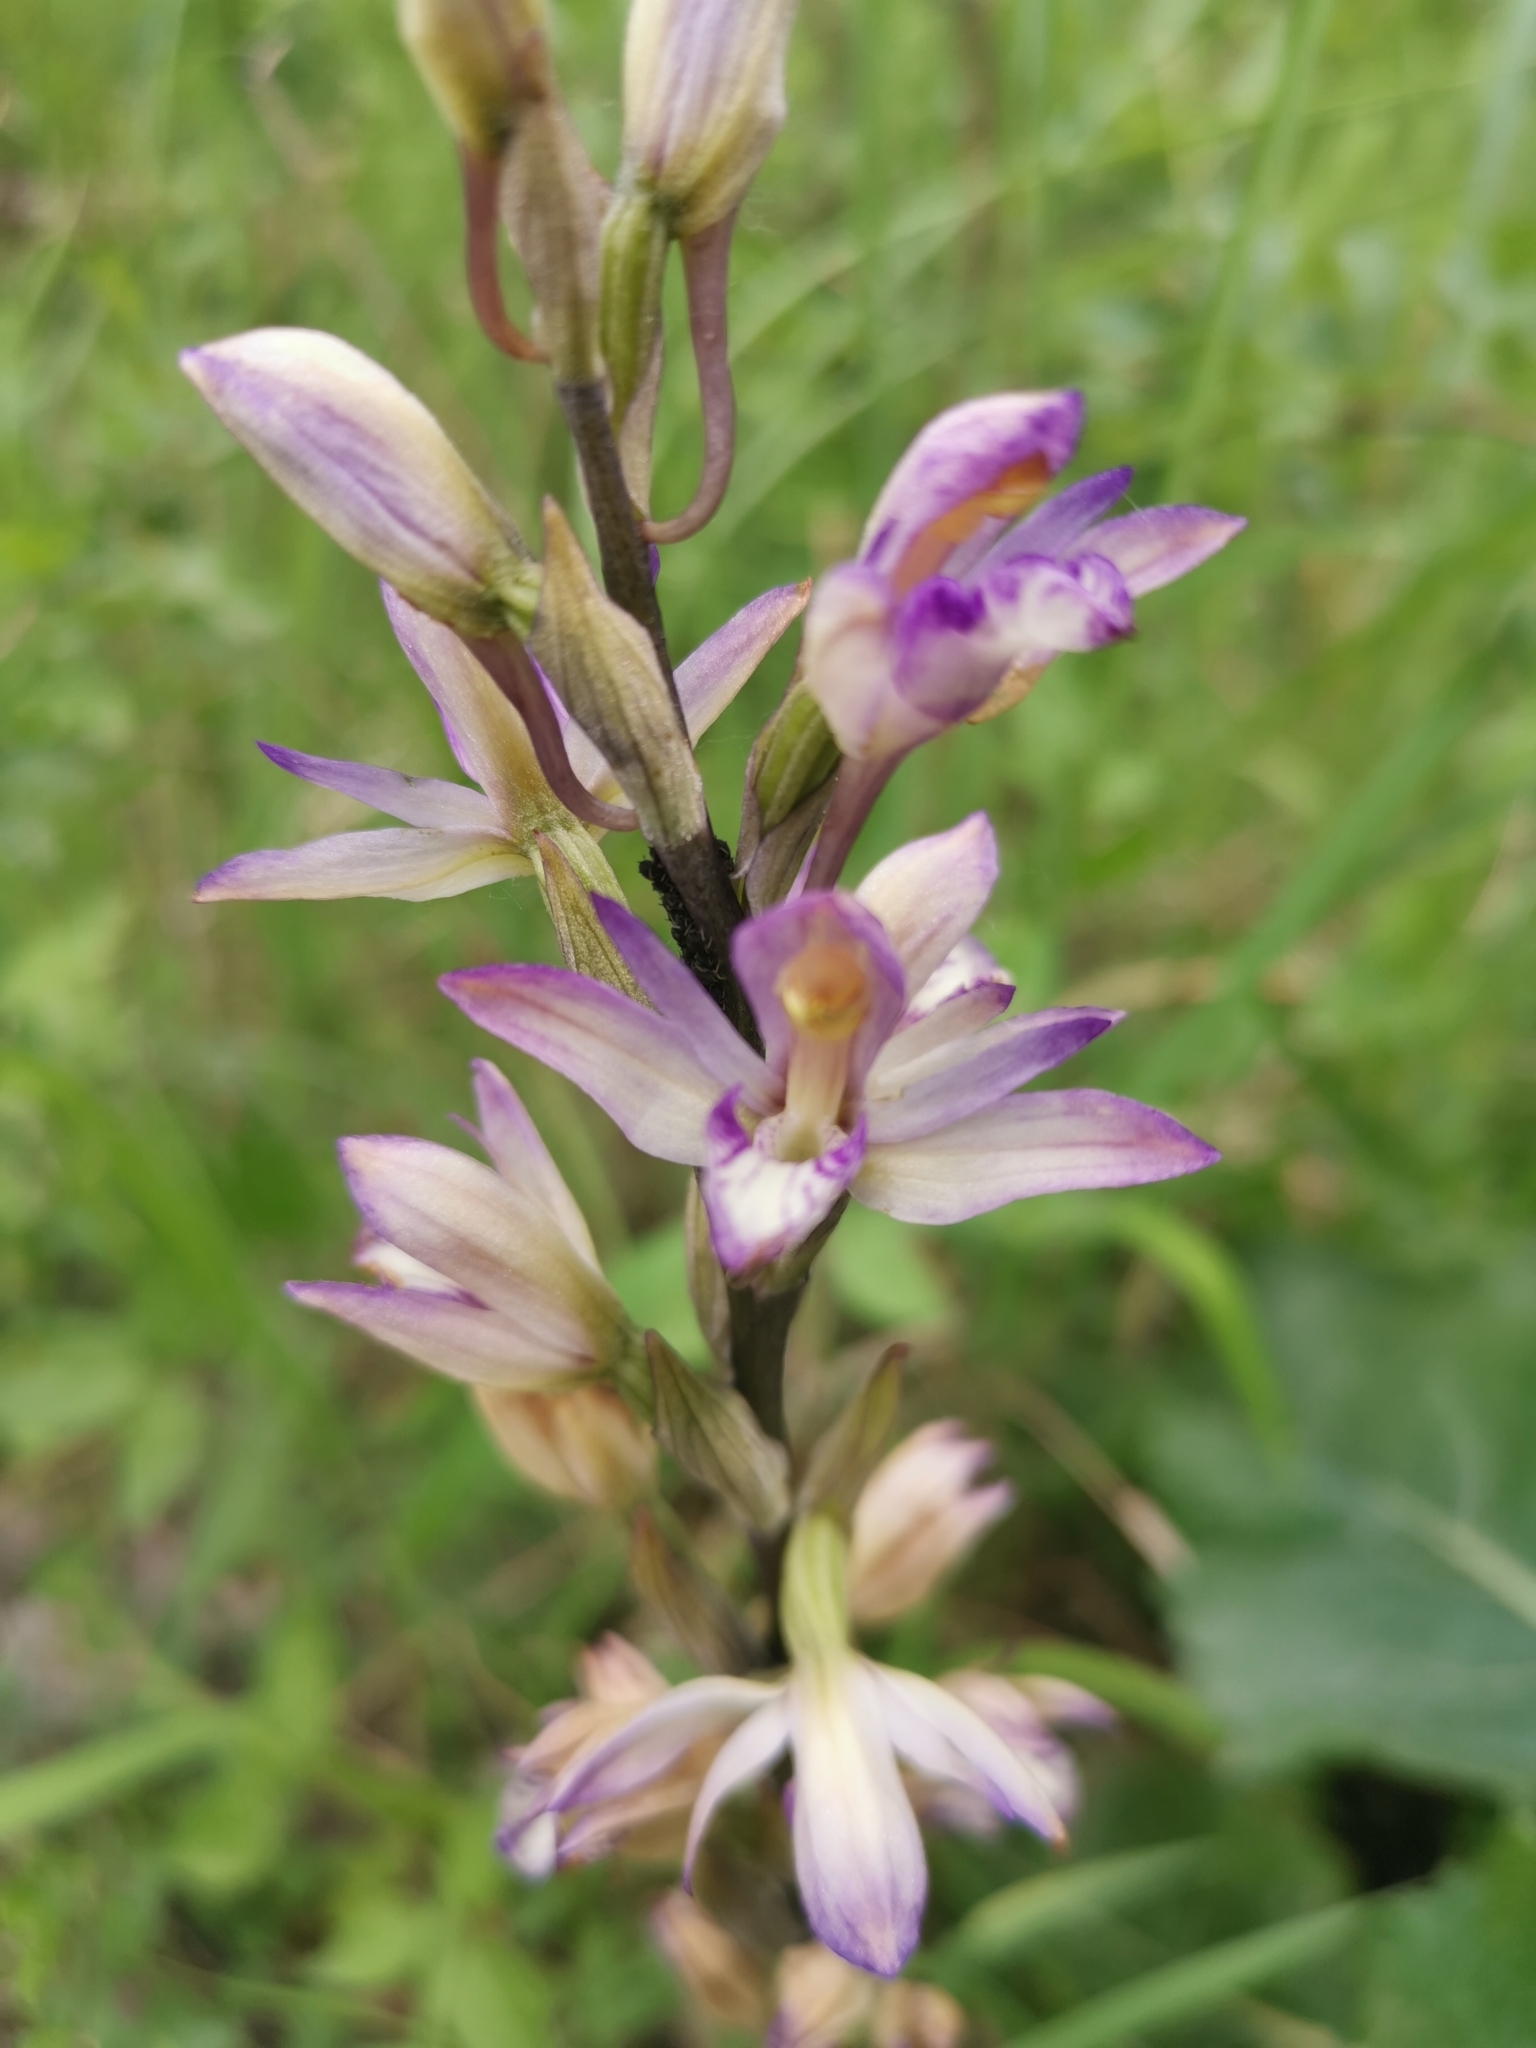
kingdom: Plantae
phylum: Tracheophyta
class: Liliopsida
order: Asparagales
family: Orchidaceae
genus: Limodorum
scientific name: Limodorum abortivum
